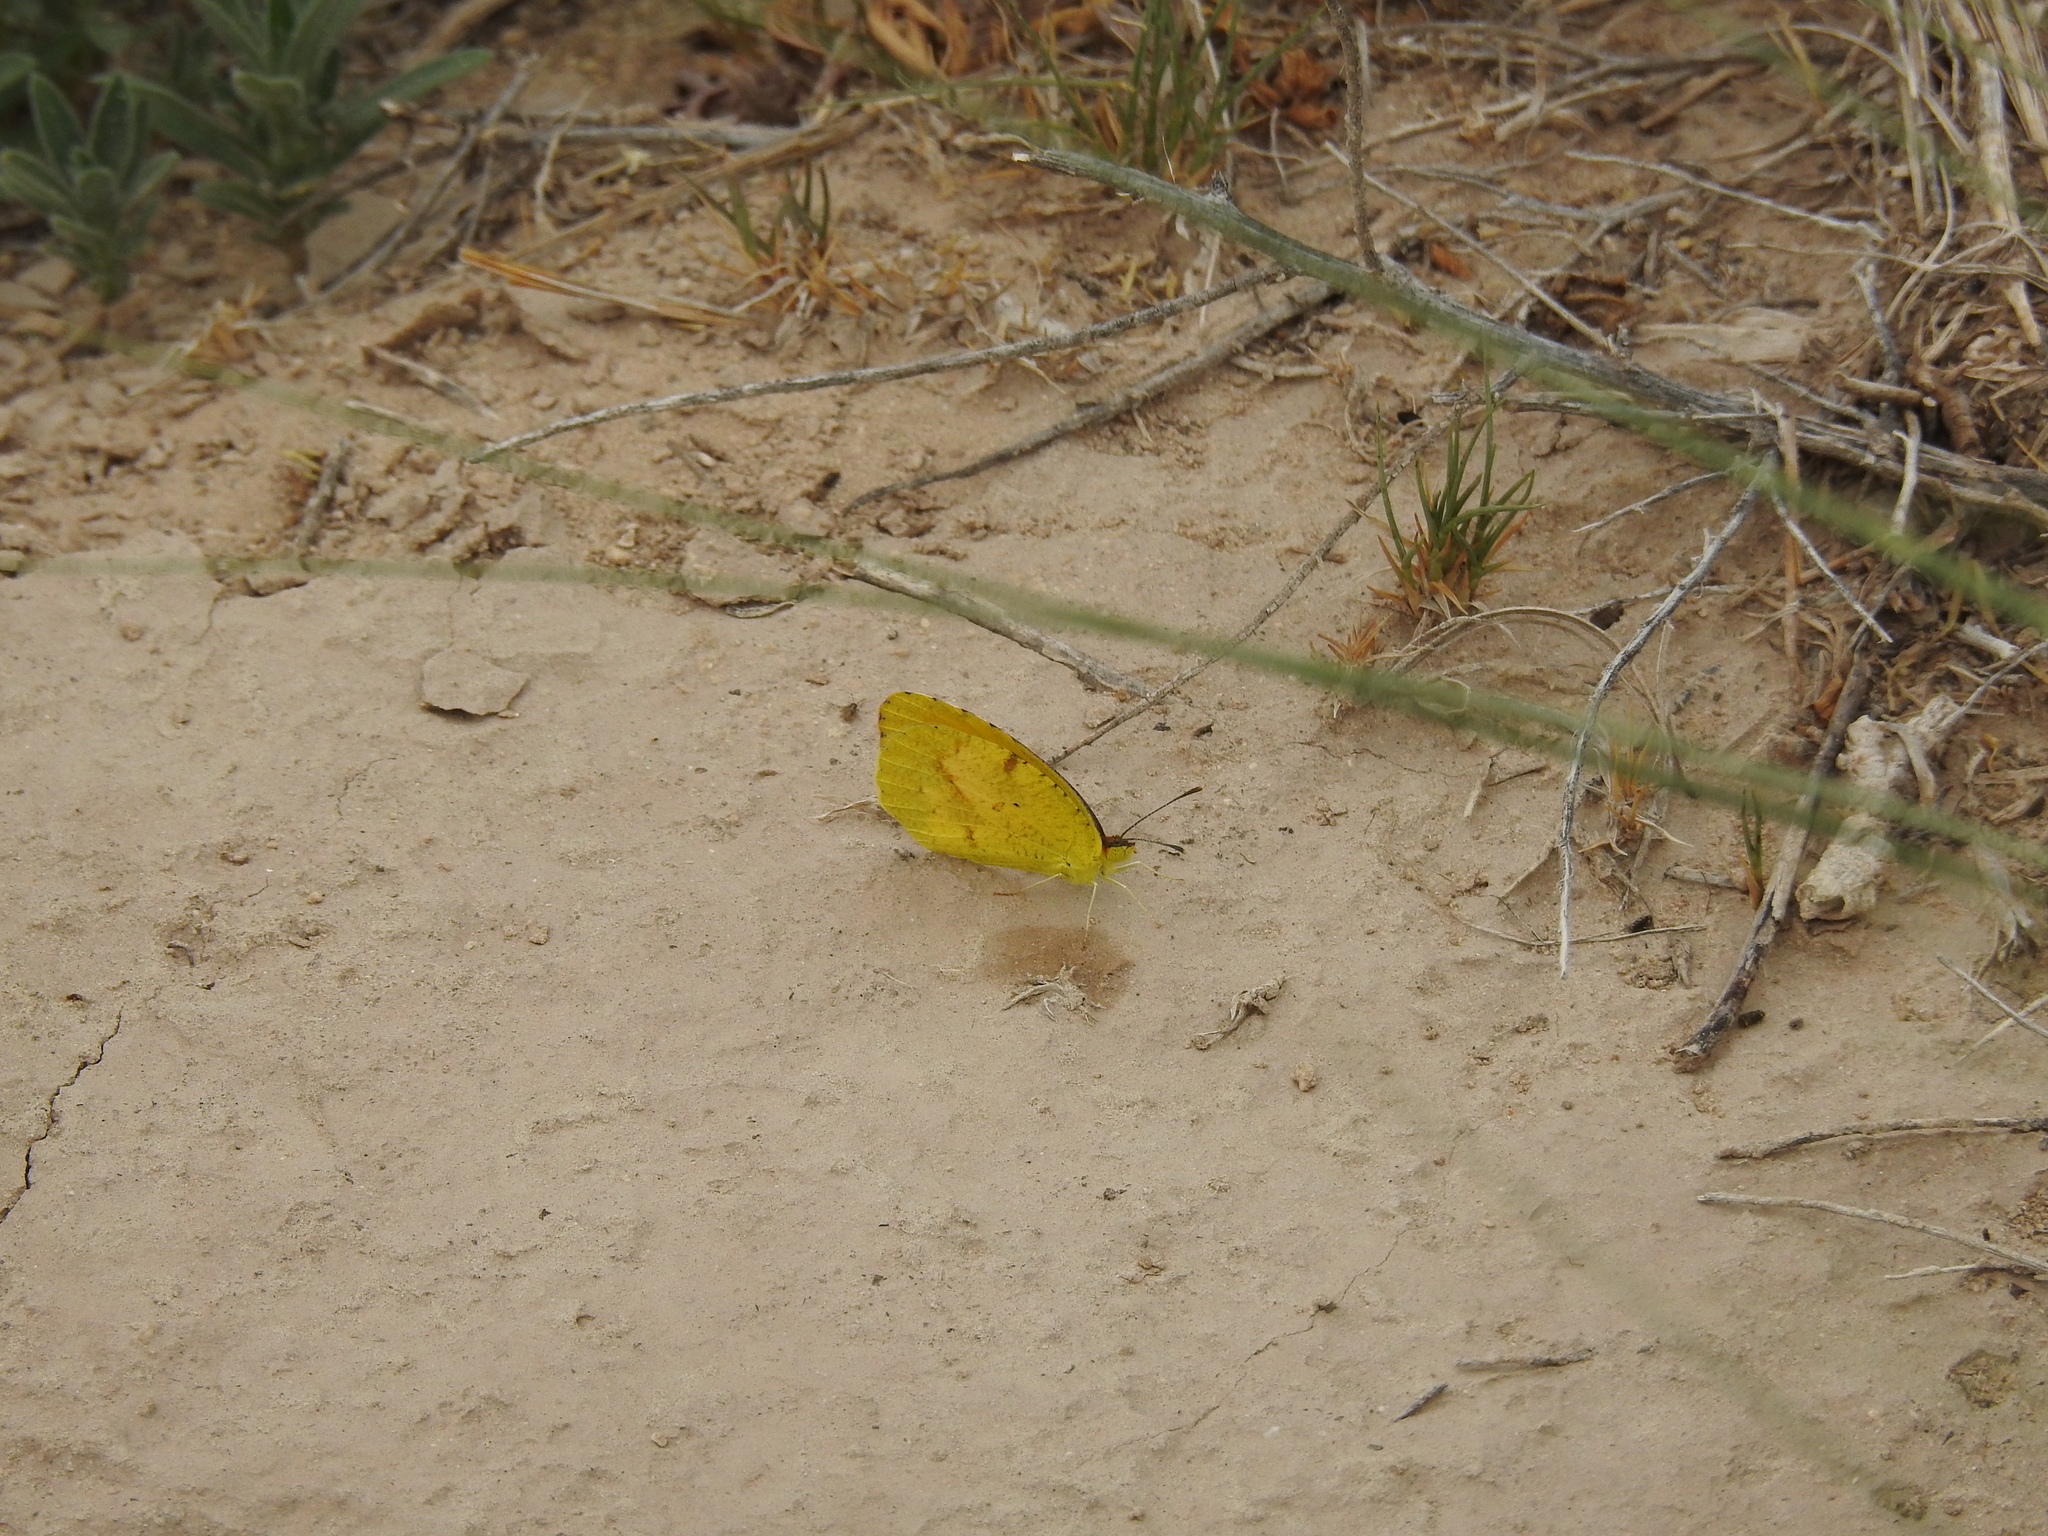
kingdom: Animalia
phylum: Arthropoda
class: Insecta
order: Lepidoptera
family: Pieridae
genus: Abaeis
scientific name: Abaeis nicippe
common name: Sleepy orange
